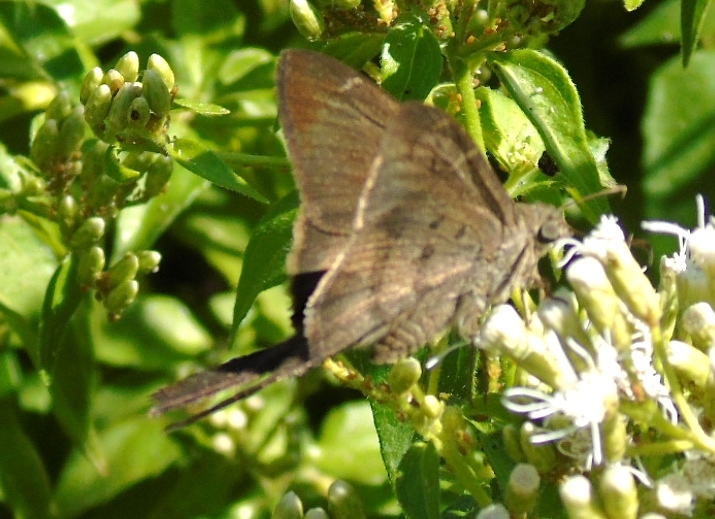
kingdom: Animalia
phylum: Arthropoda
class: Insecta
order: Lepidoptera
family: Hesperiidae
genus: Urbanus
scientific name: Urbanus procne
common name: Brown longtail
